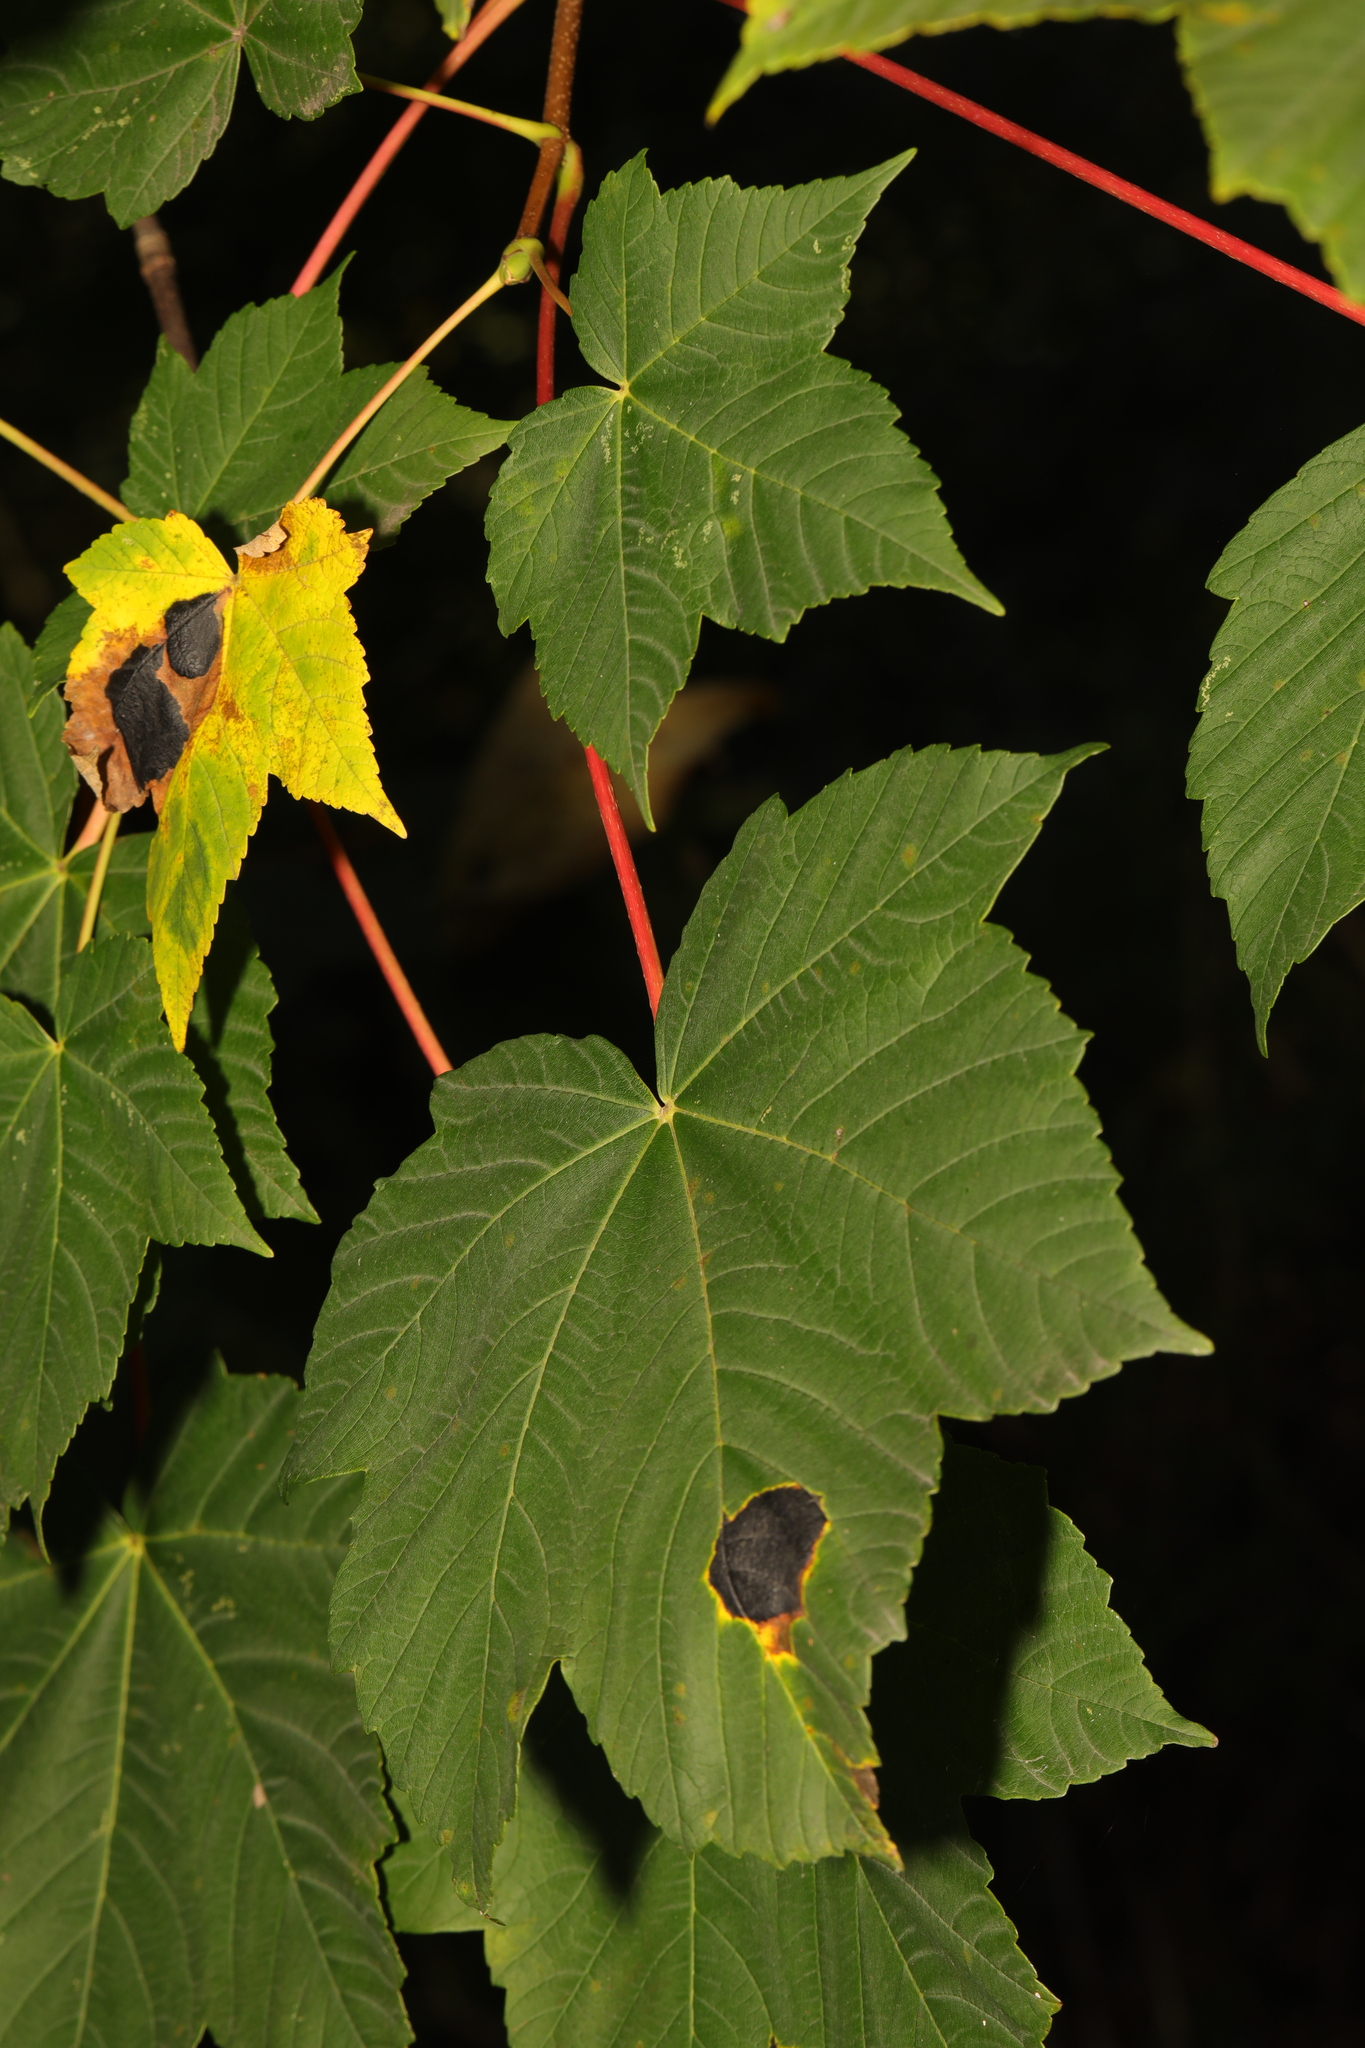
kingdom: Plantae
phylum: Tracheophyta
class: Magnoliopsida
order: Sapindales
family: Sapindaceae
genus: Acer
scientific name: Acer pseudoplatanus
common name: Sycamore
